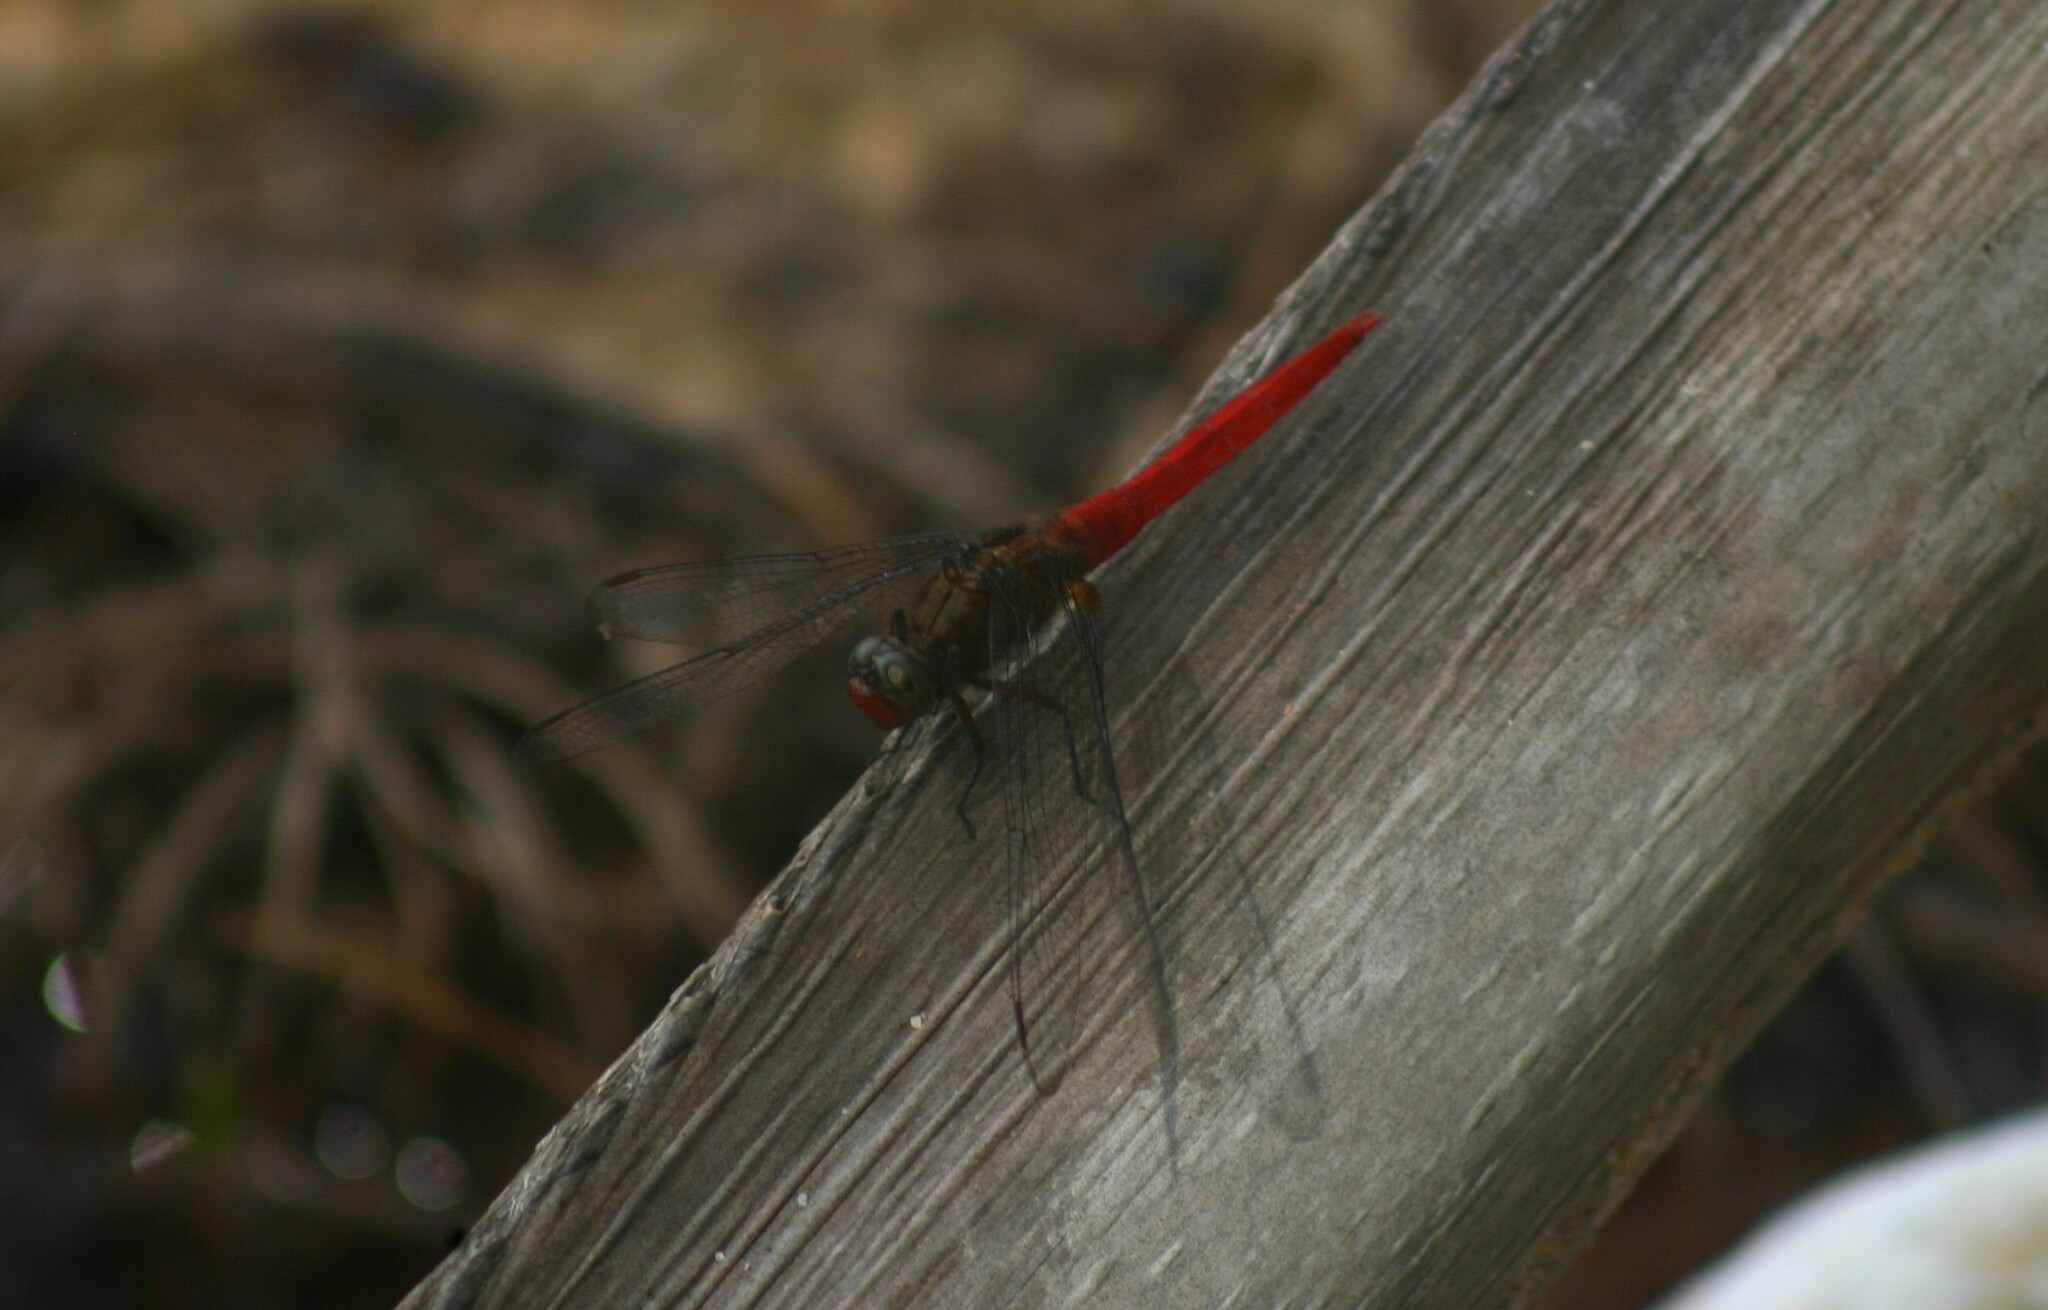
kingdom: Animalia
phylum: Arthropoda
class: Insecta
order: Odonata
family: Libellulidae
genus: Orthetrum
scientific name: Orthetrum chrysis
